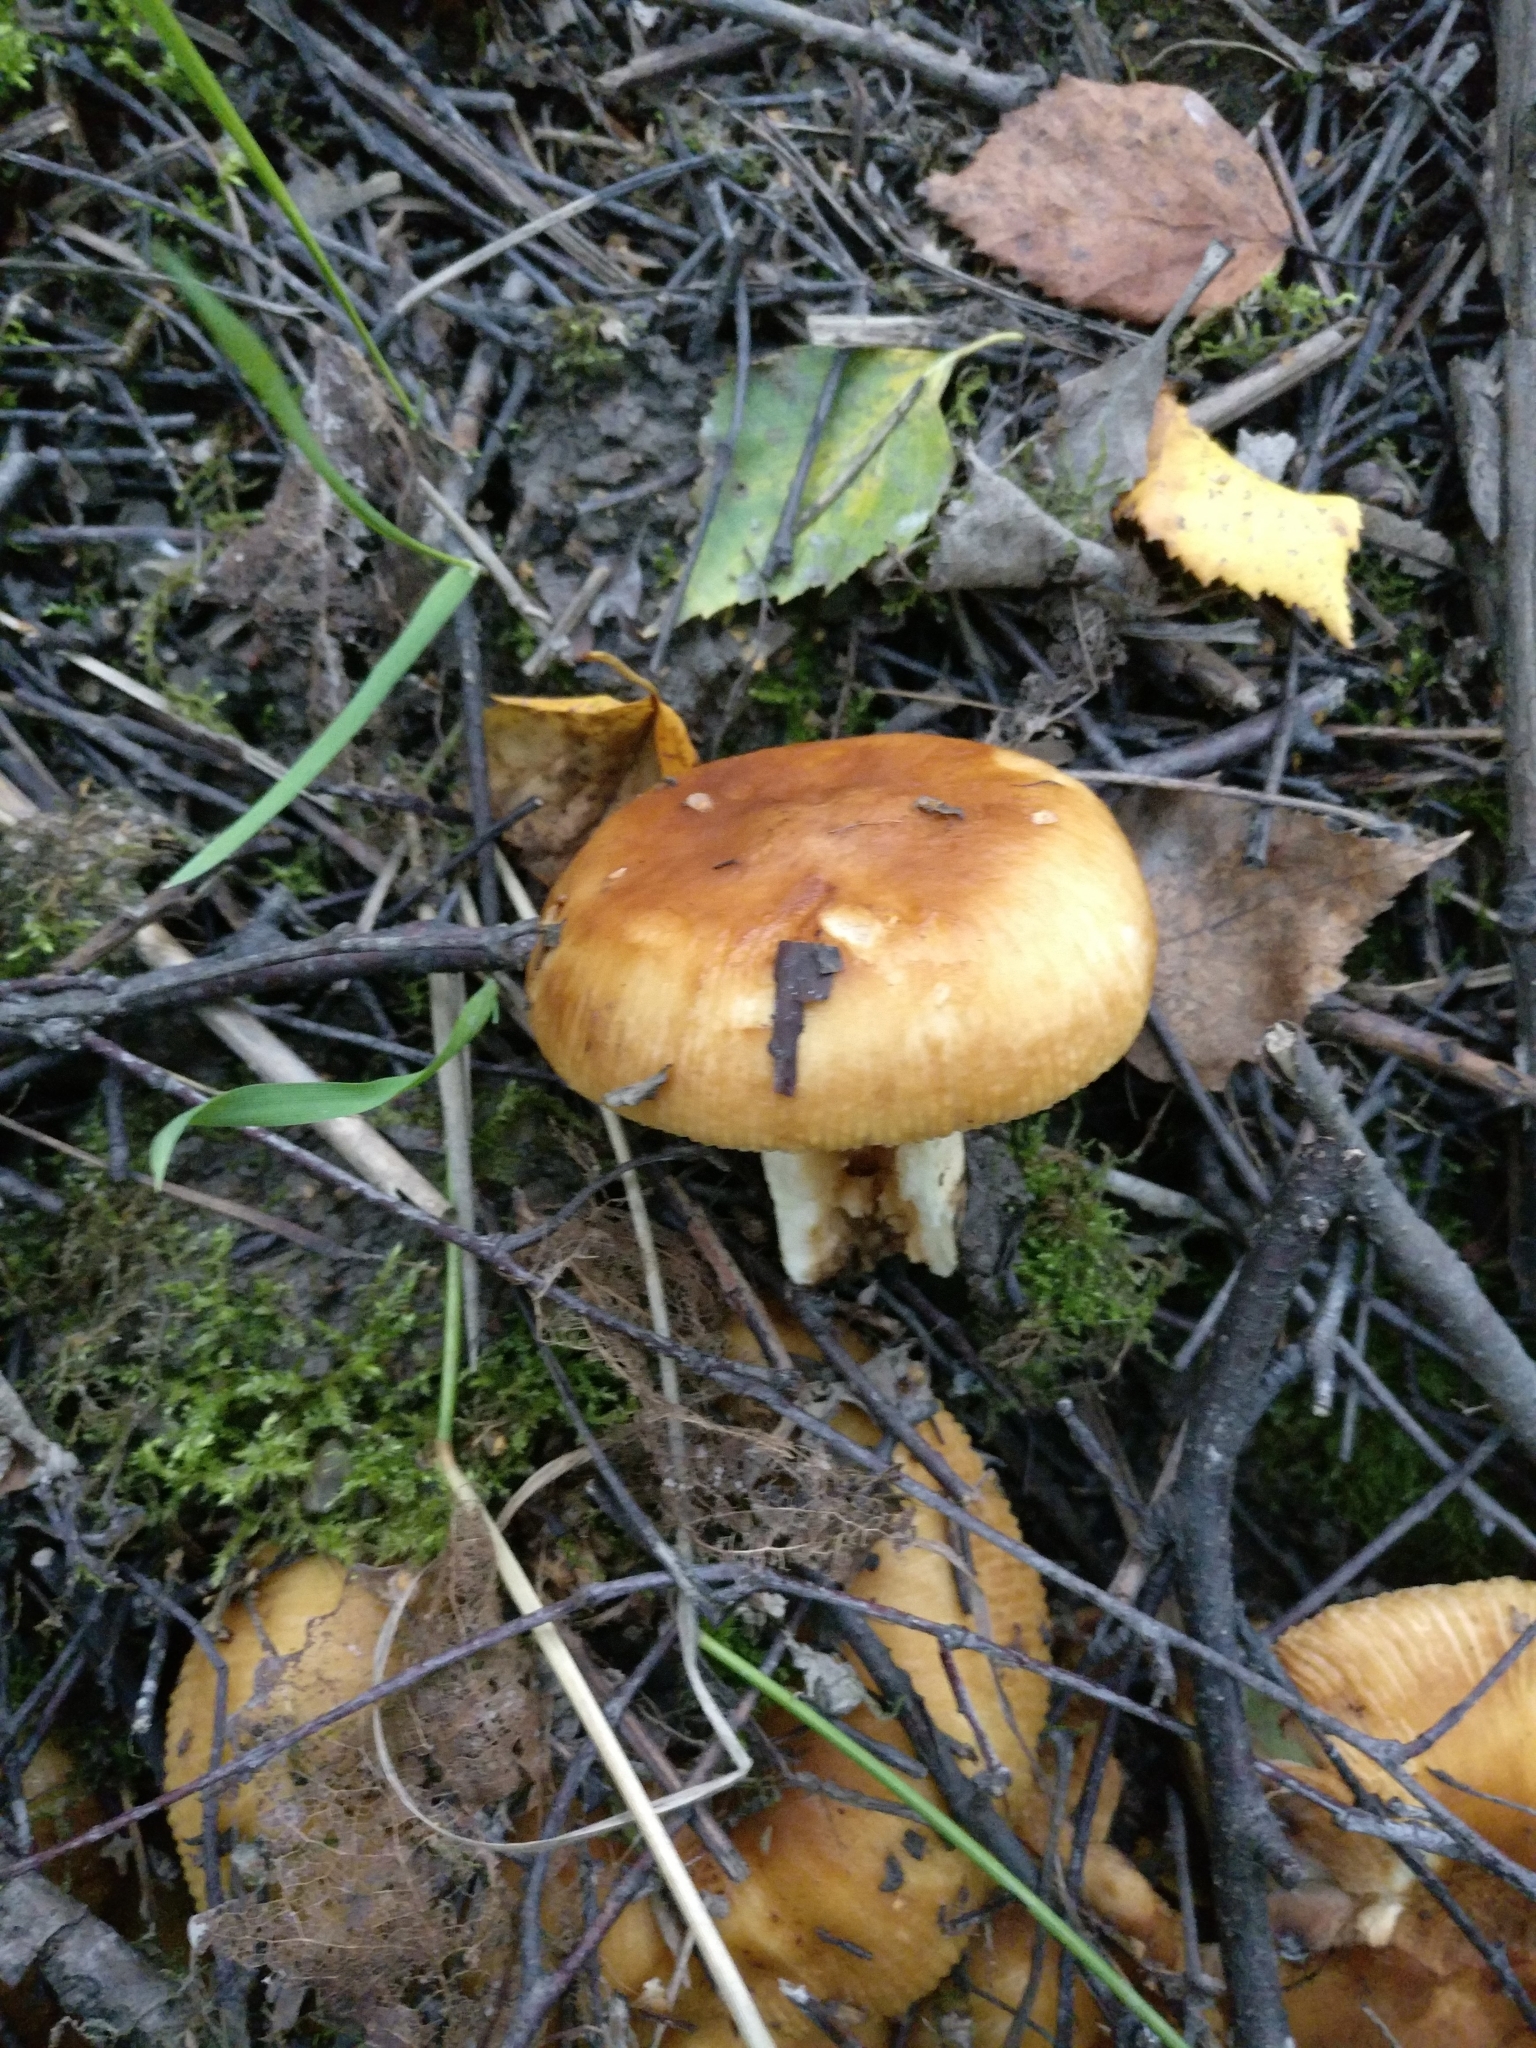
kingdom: Fungi
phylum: Basidiomycota
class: Agaricomycetes
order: Russulales
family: Russulaceae
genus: Russula
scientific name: Russula foetens
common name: Foetid russula
